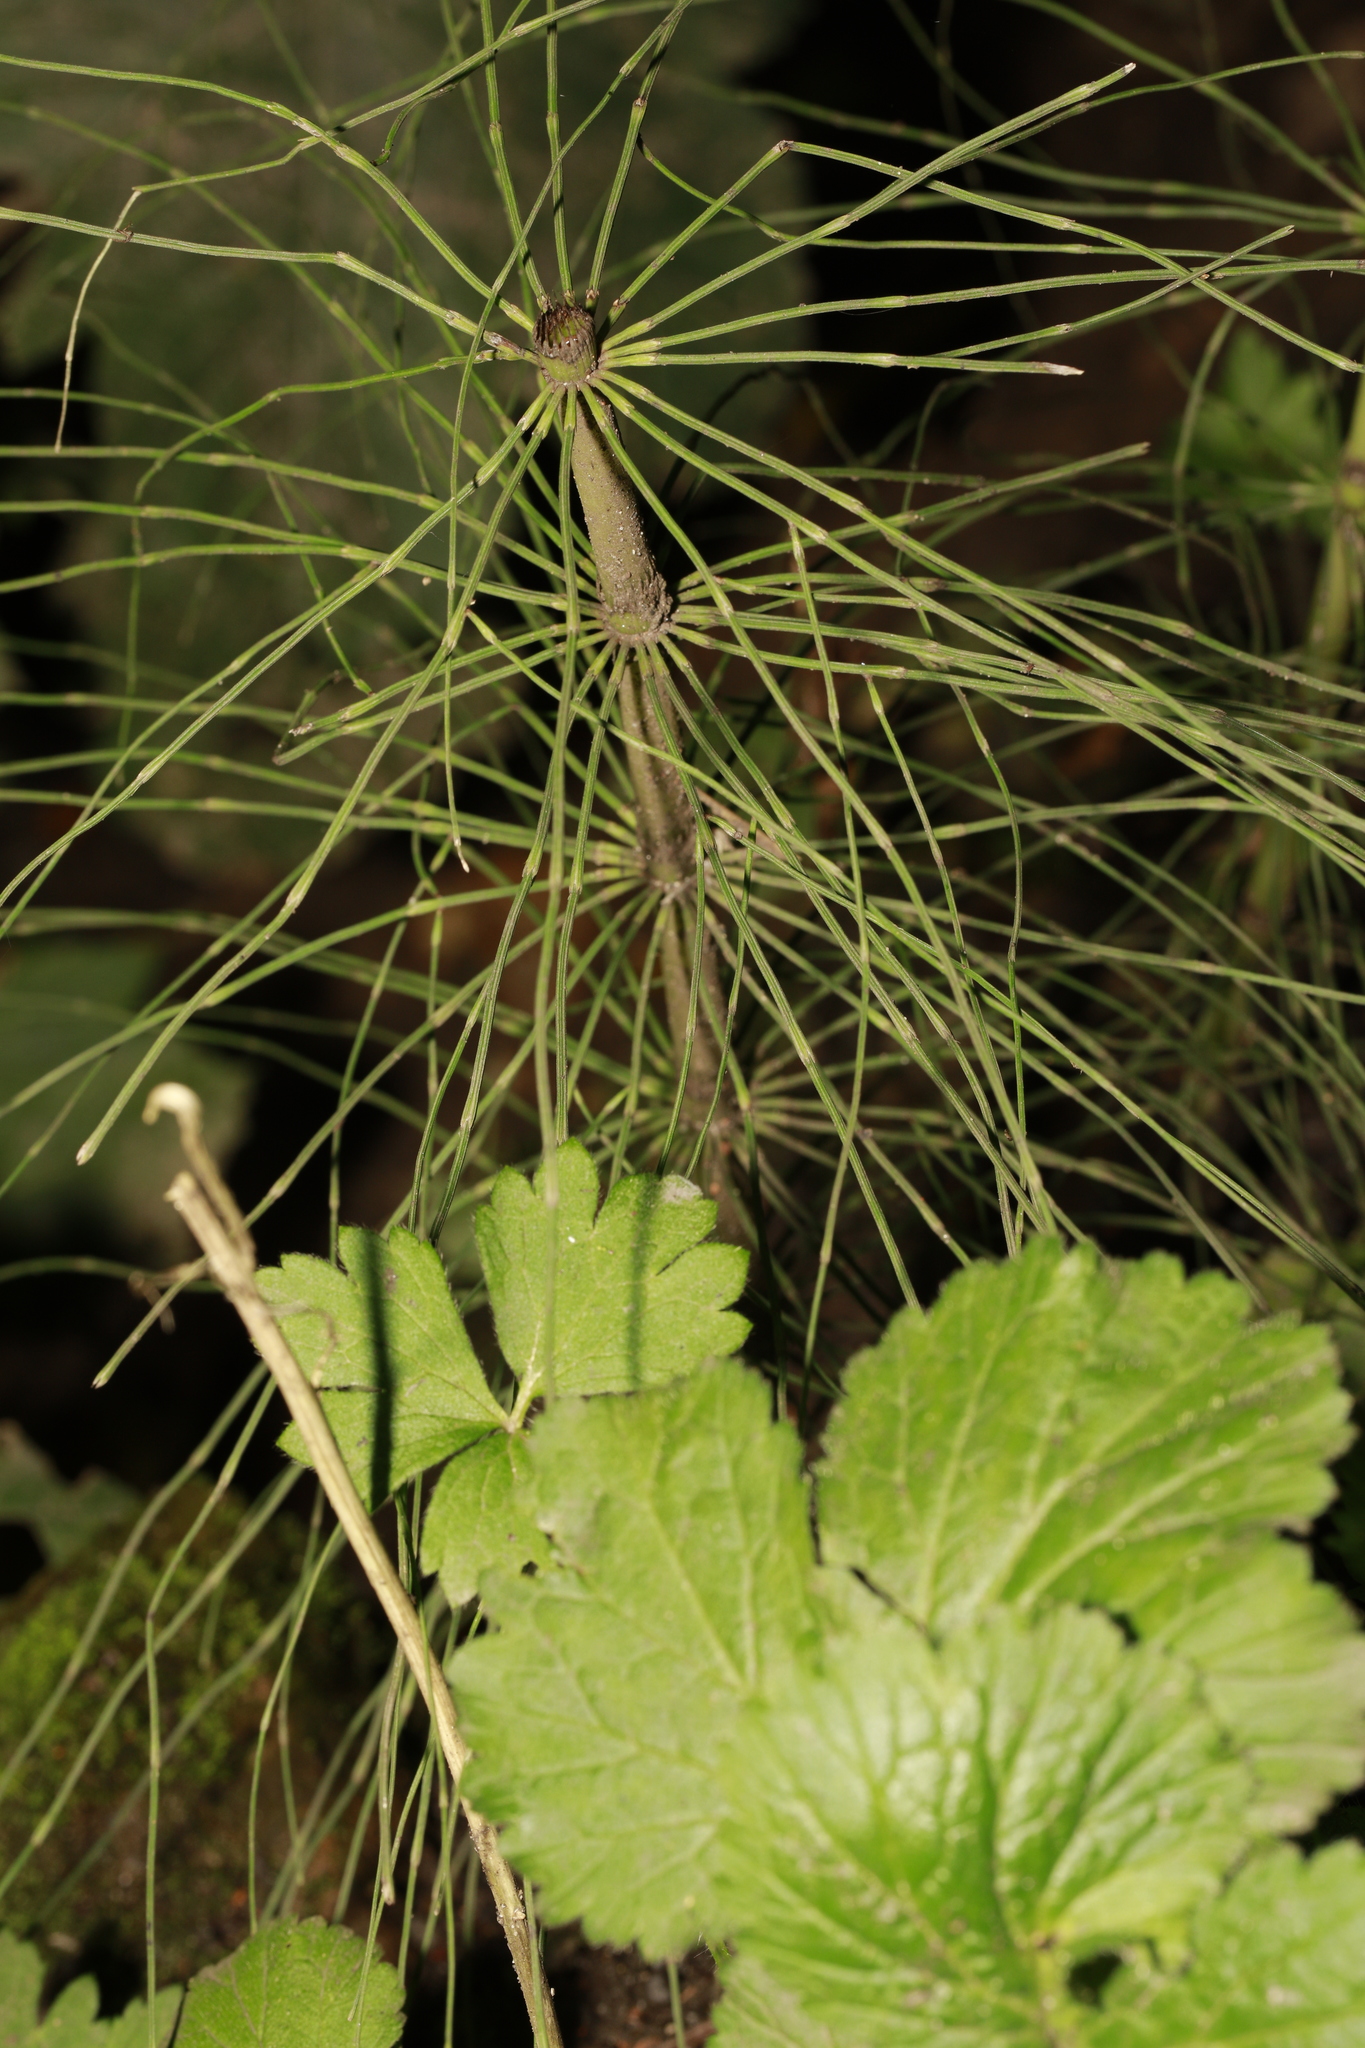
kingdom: Plantae
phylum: Tracheophyta
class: Polypodiopsida
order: Equisetales
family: Equisetaceae
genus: Equisetum
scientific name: Equisetum telmateia
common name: Great horsetail
